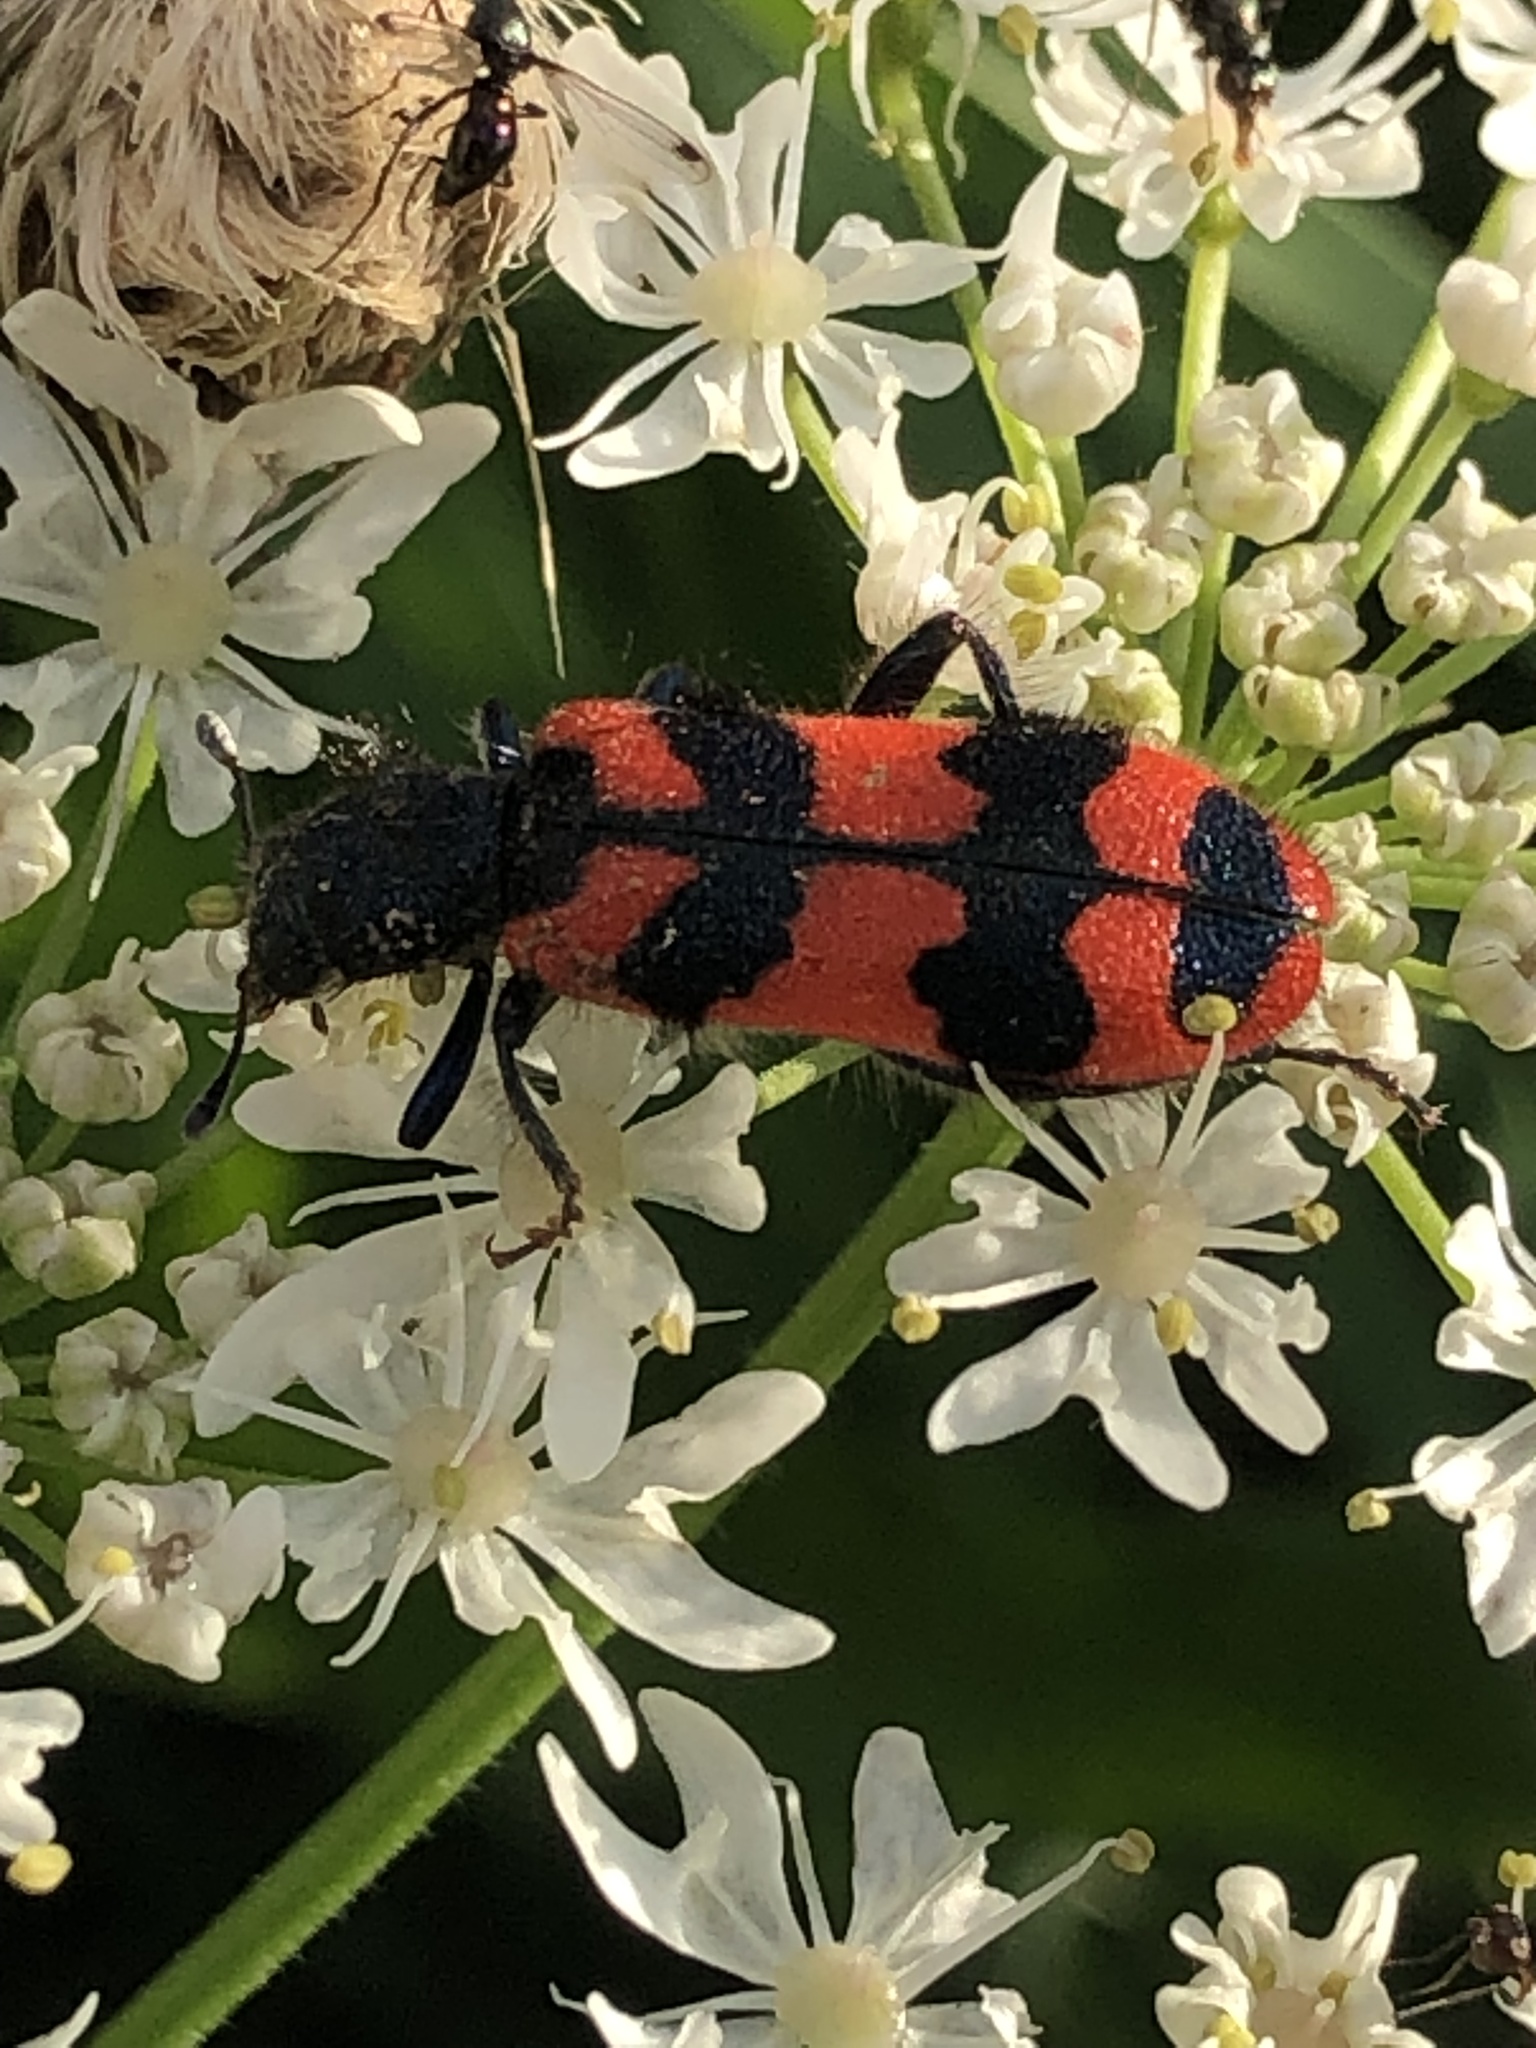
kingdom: Animalia
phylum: Arthropoda
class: Insecta
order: Coleoptera
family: Cleridae
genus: Trichodes
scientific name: Trichodes alvearius
